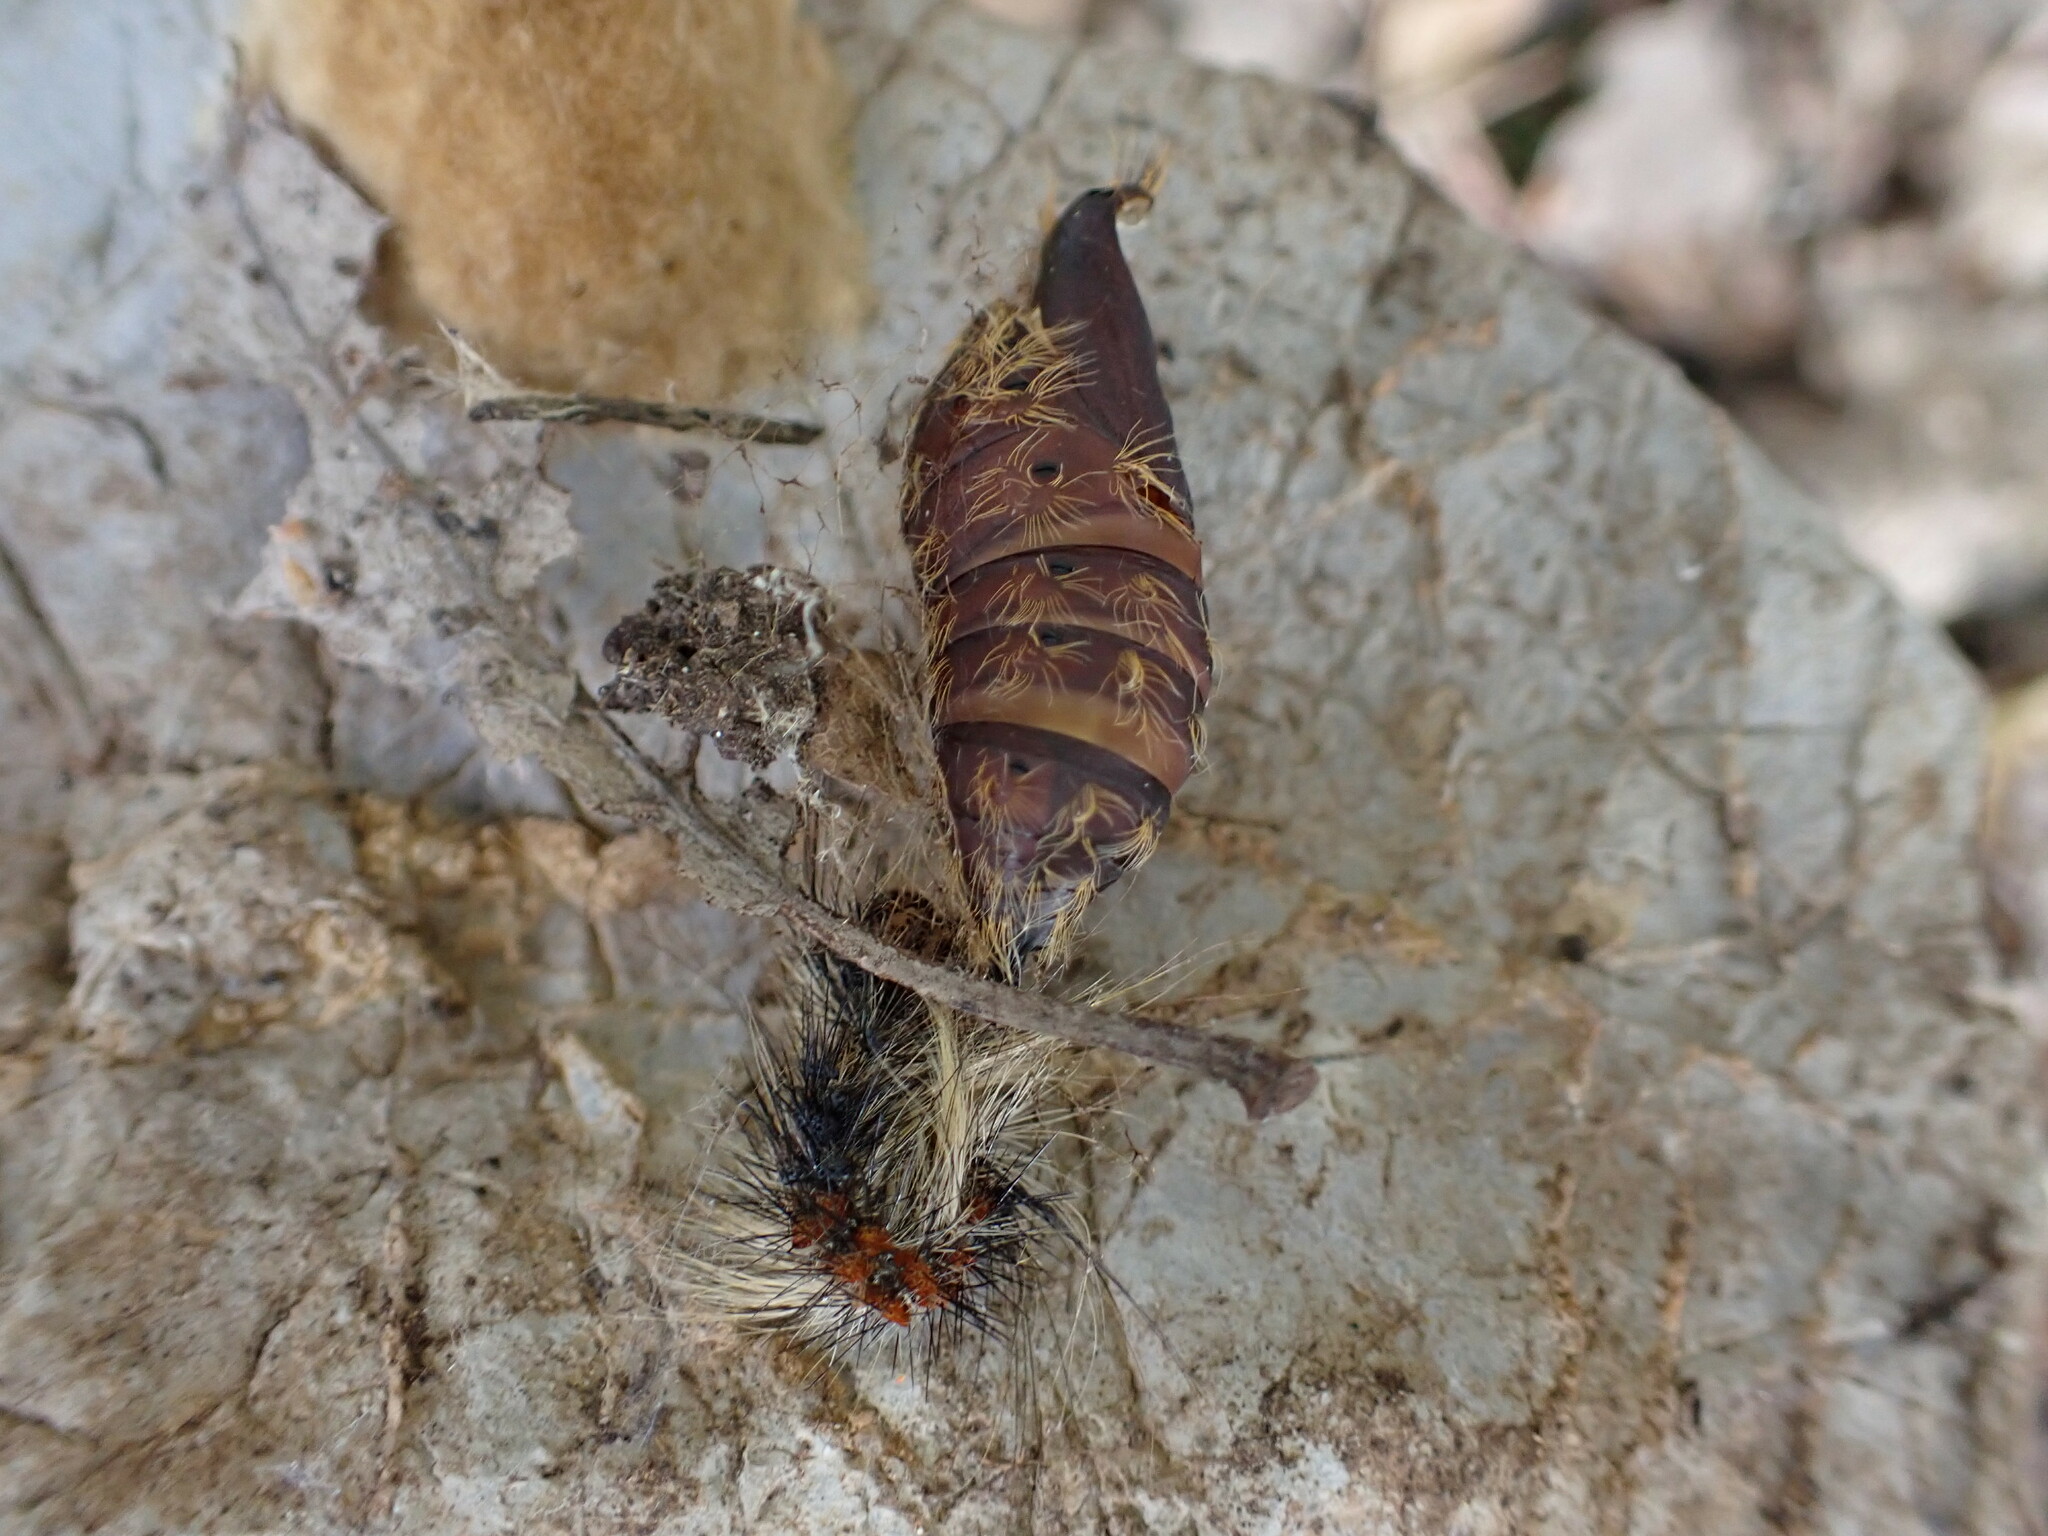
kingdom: Animalia
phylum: Arthropoda
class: Insecta
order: Lepidoptera
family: Erebidae
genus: Lymantria
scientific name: Lymantria dispar
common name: Gypsy moth
